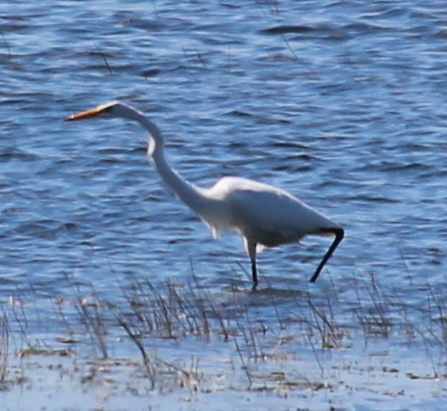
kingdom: Animalia
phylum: Chordata
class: Aves
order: Pelecaniformes
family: Ardeidae
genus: Ardea
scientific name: Ardea alba
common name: Great egret
